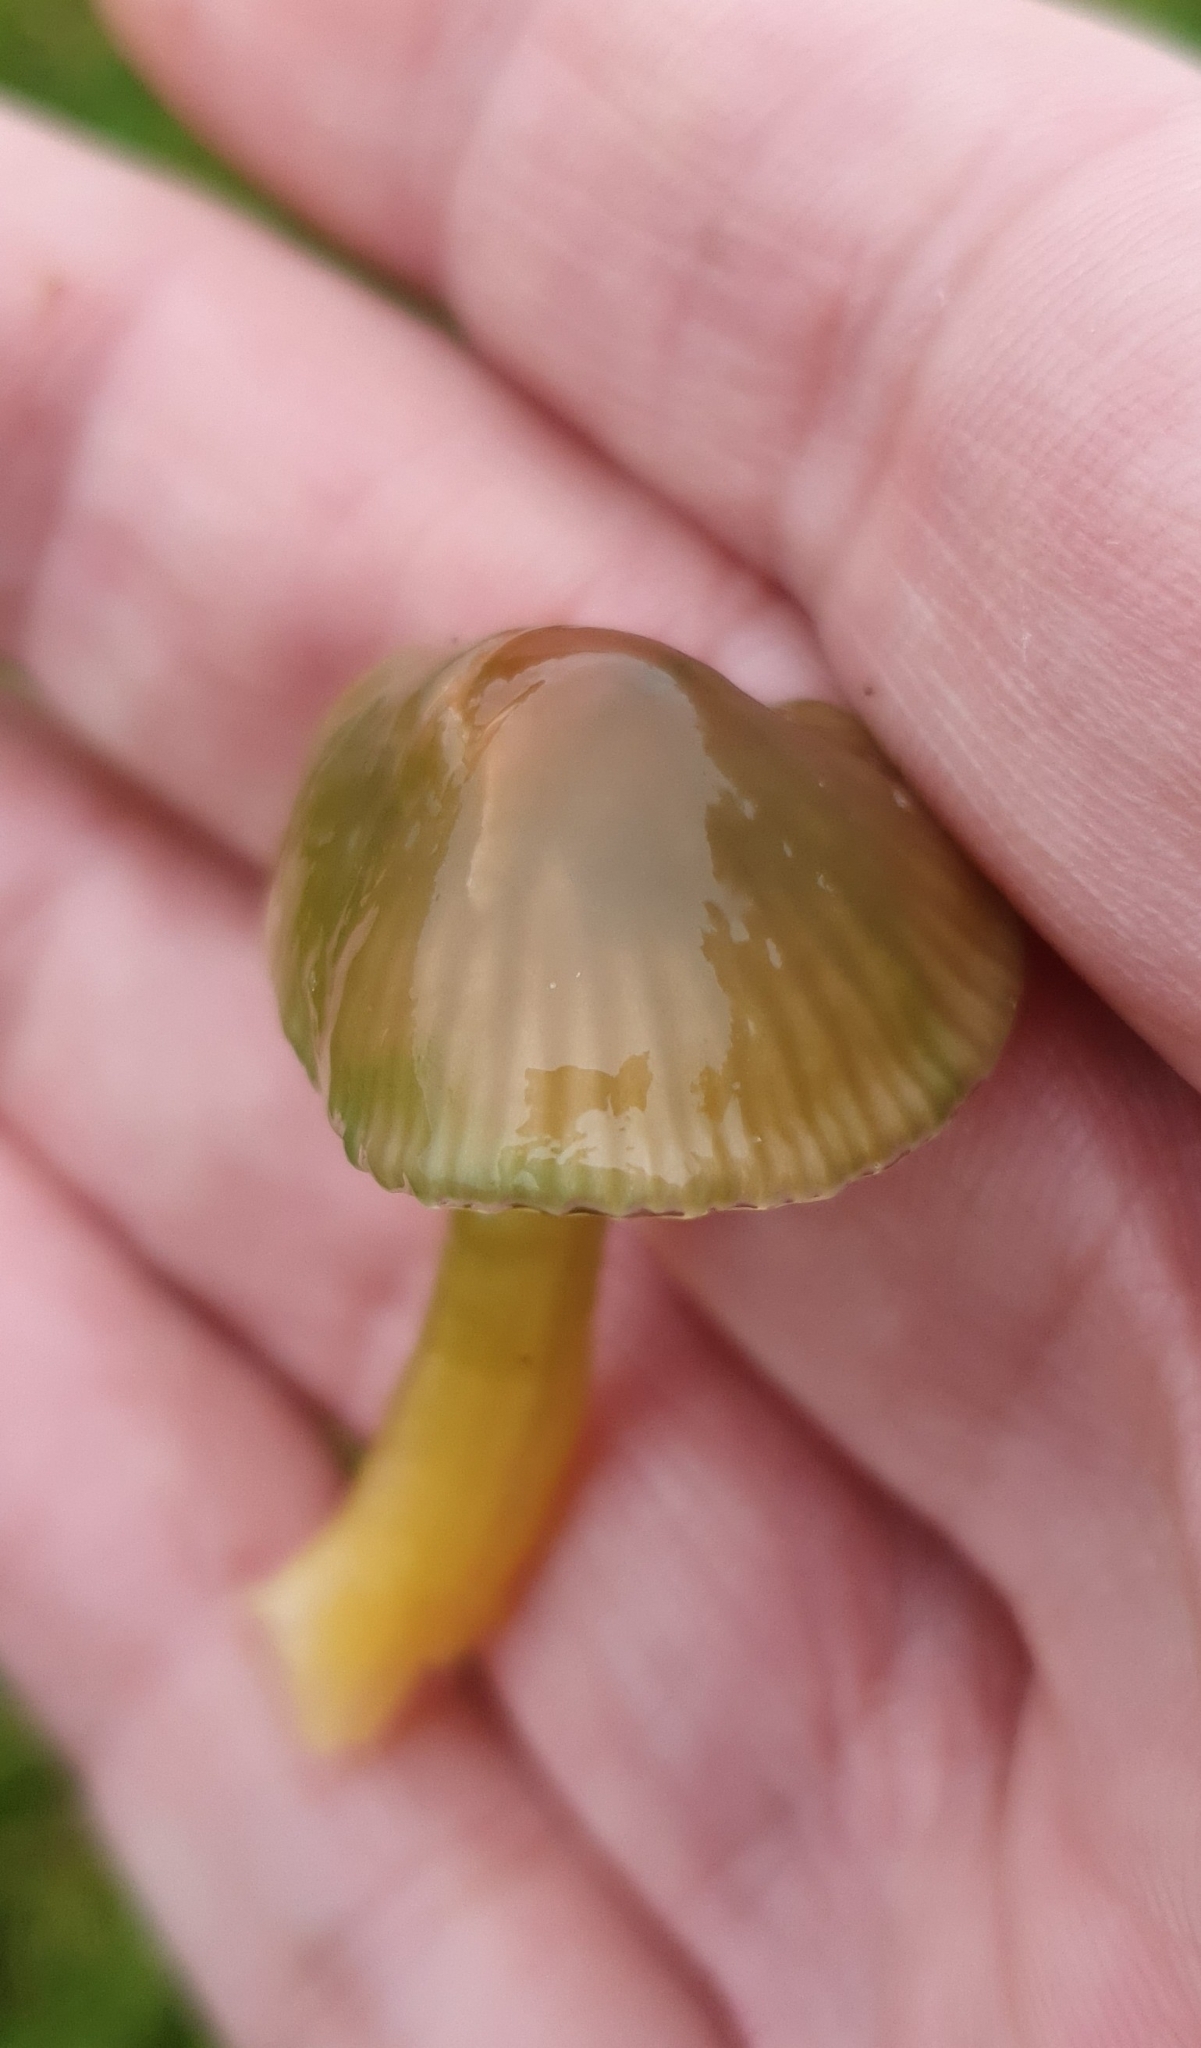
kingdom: Fungi
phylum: Basidiomycota
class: Agaricomycetes
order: Agaricales
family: Hygrophoraceae
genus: Gliophorus
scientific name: Gliophorus psittacinus
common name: Parrot wax-cap
